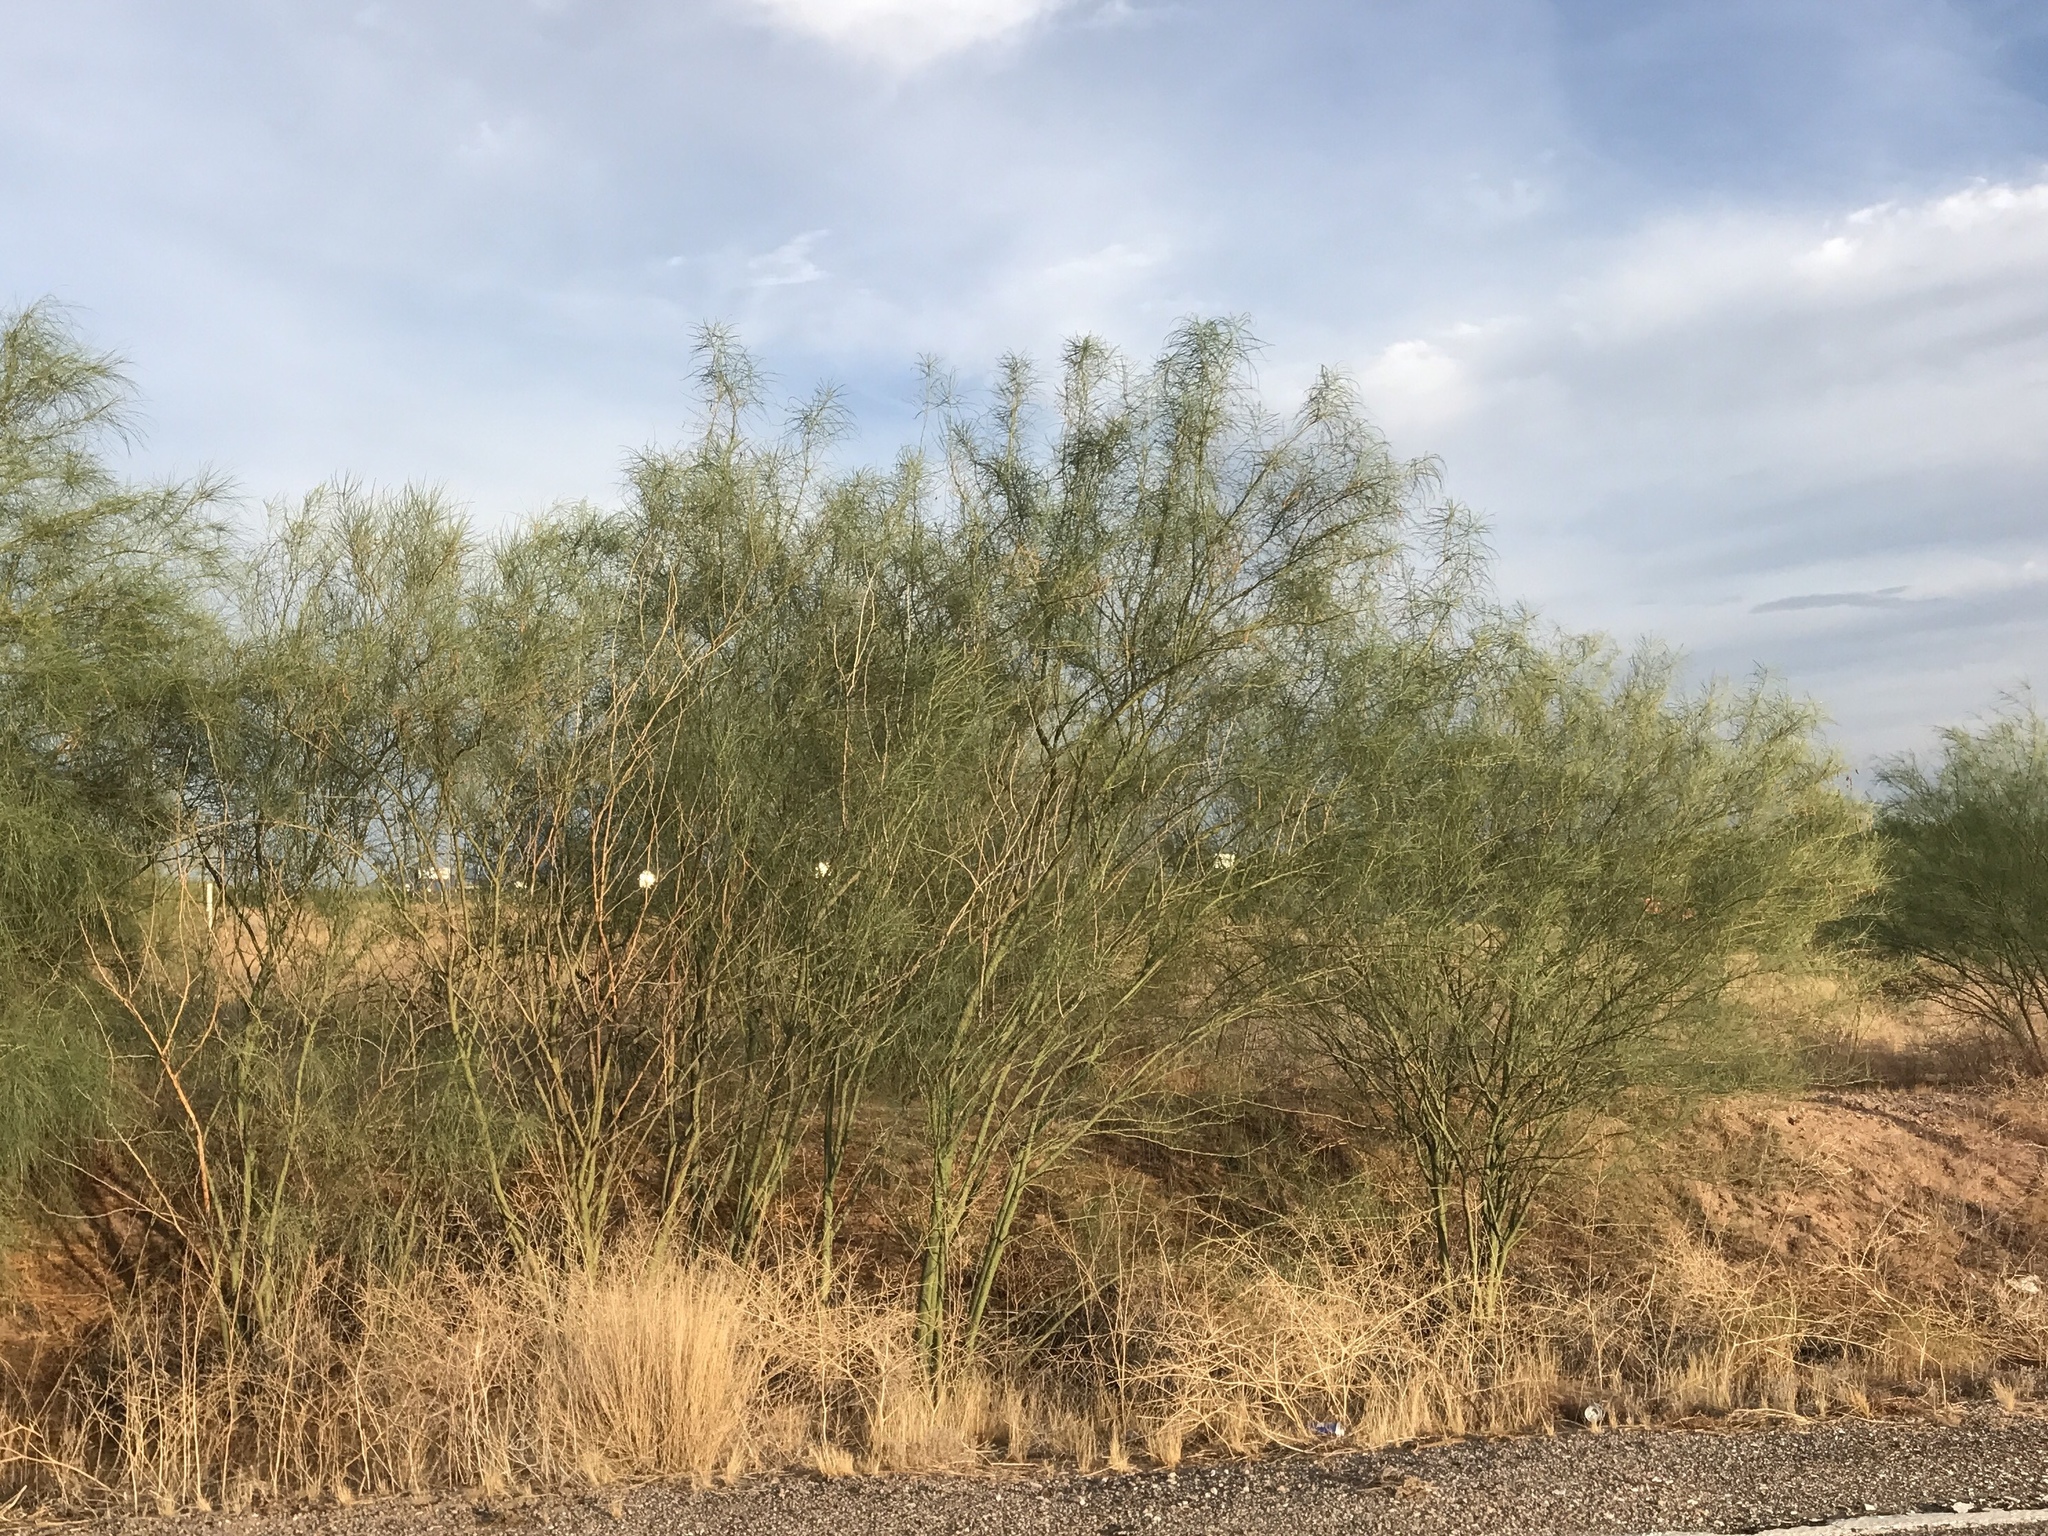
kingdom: Plantae
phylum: Tracheophyta
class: Magnoliopsida
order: Fabales
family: Fabaceae
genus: Parkinsonia
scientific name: Parkinsonia aculeata
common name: Jerusalem thorn
